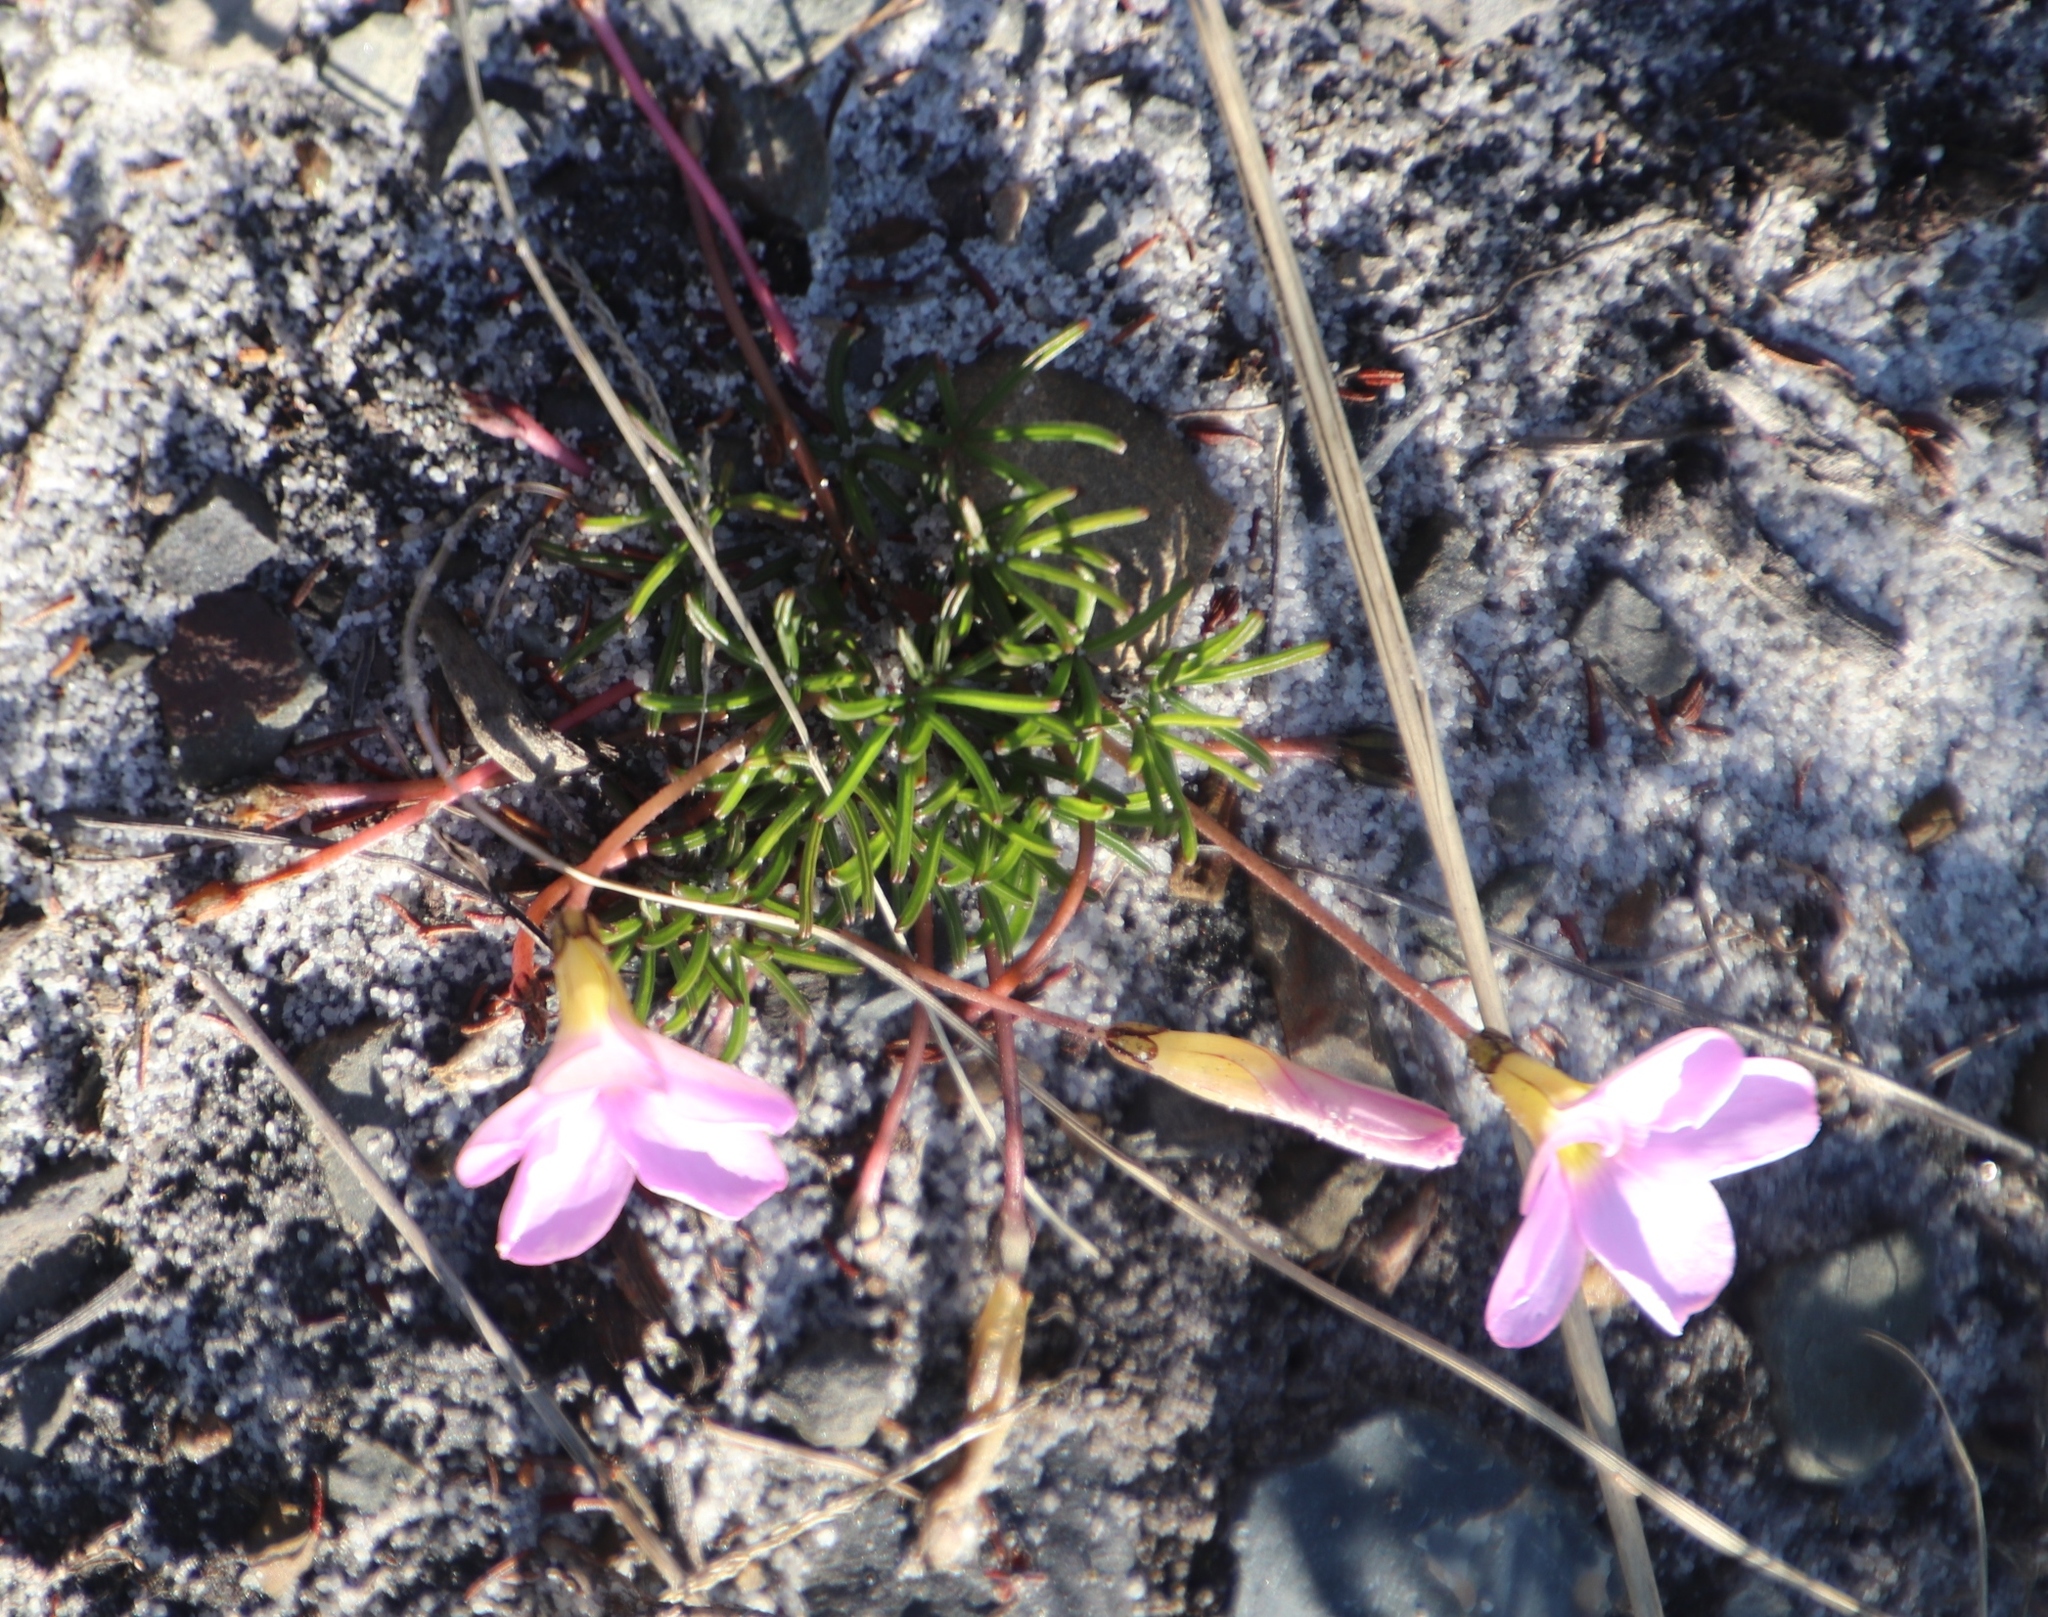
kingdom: Plantae
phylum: Tracheophyta
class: Magnoliopsida
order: Oxalidales
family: Oxalidaceae
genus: Oxalis
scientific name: Oxalis versicolor
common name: Peppermint rock oxalis
